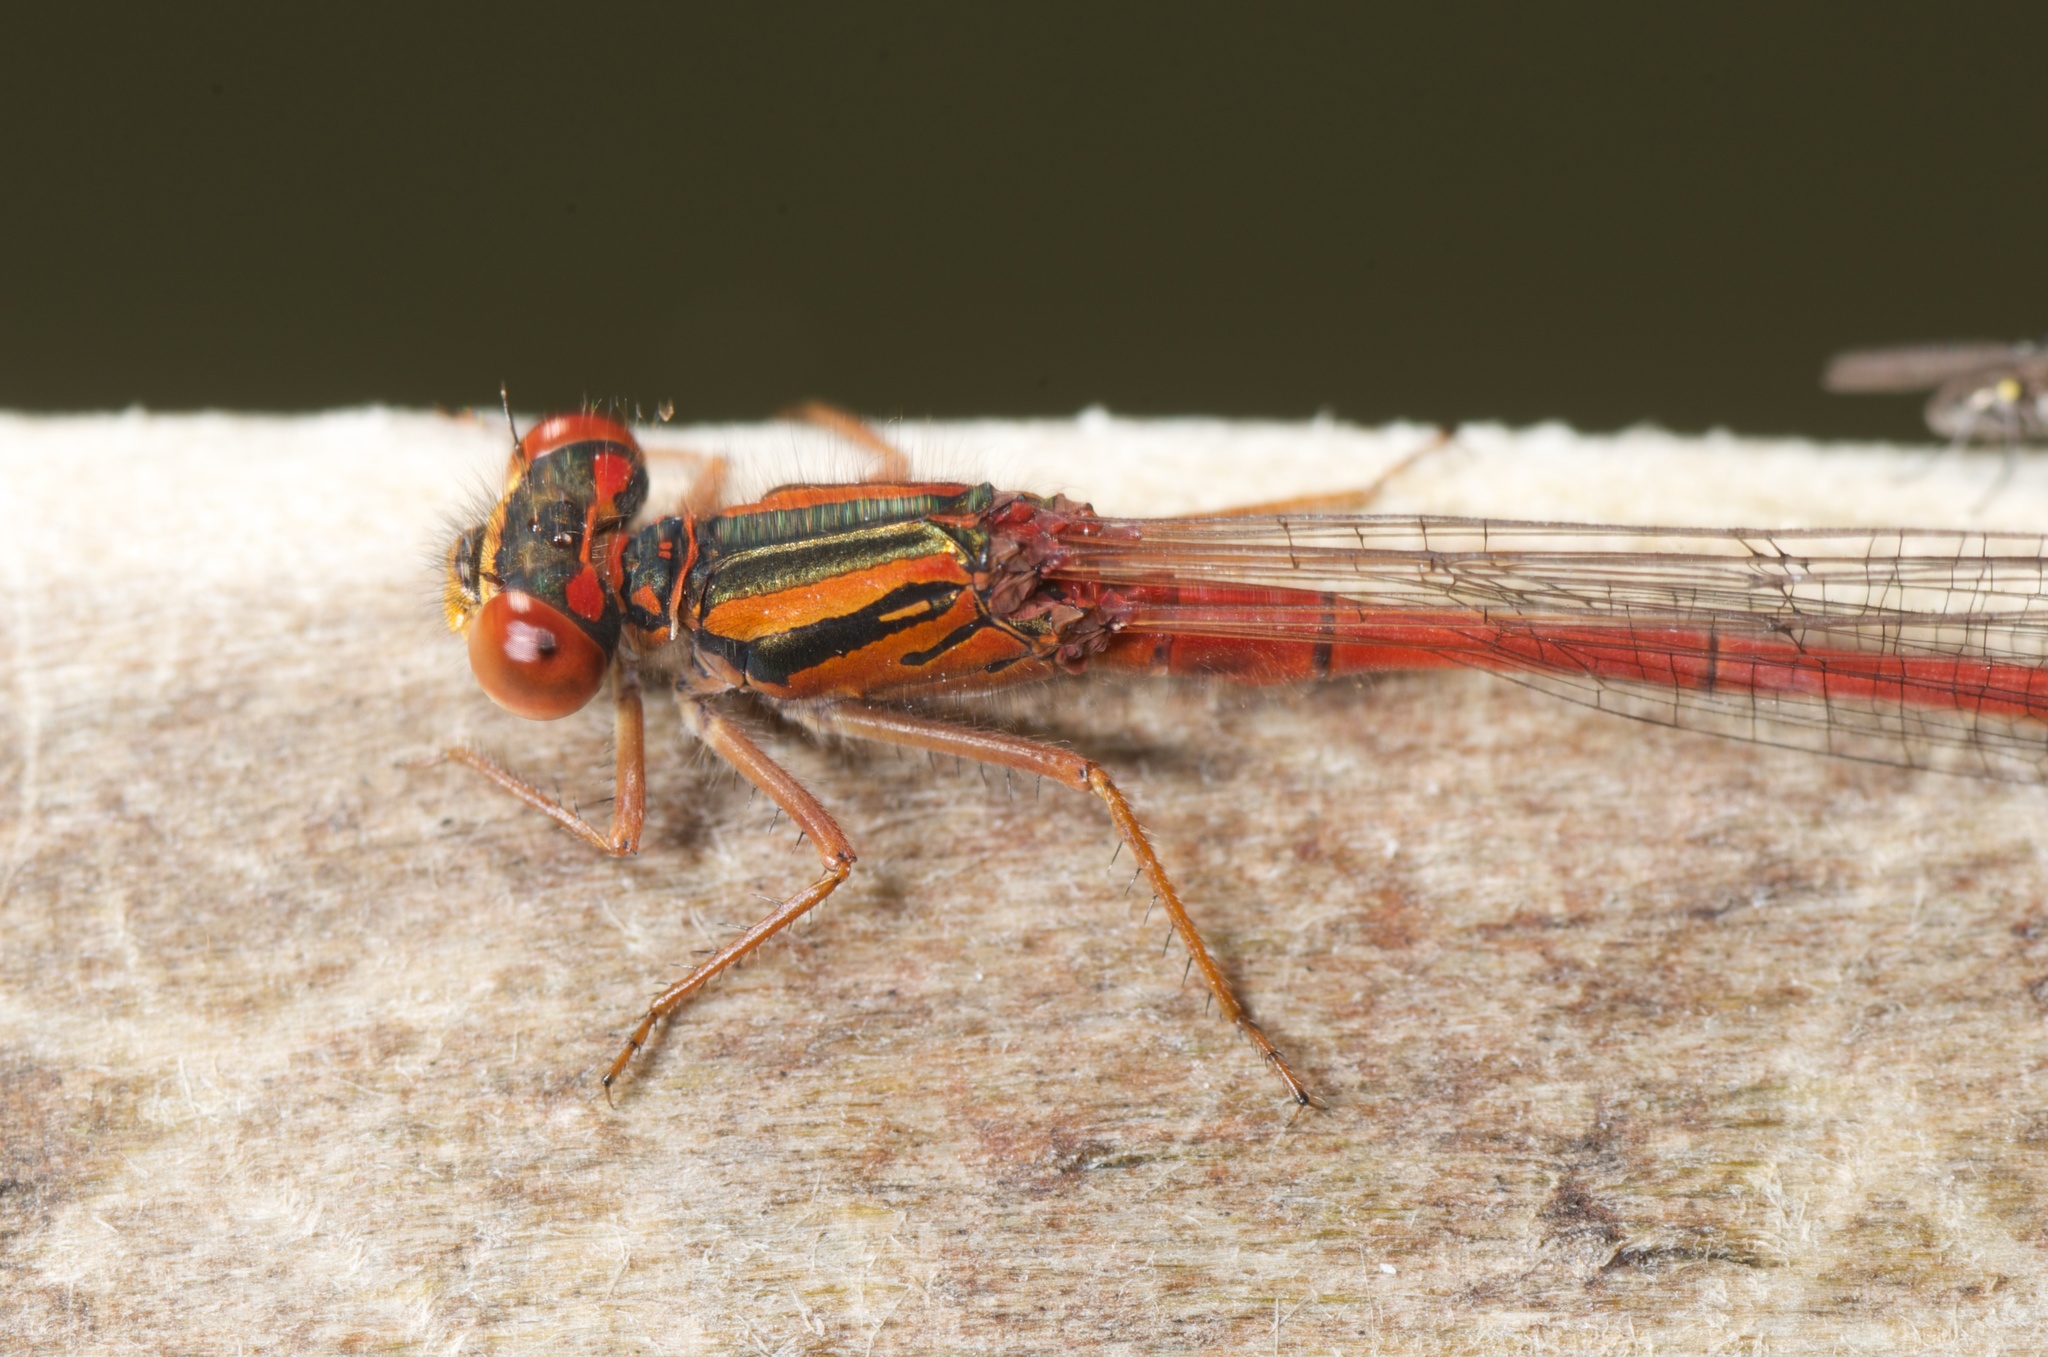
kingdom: Animalia
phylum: Arthropoda
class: Insecta
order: Odonata
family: Coenagrionidae
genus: Xanthocnemis
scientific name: Xanthocnemis zealandica
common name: Common redcoat damselfly
